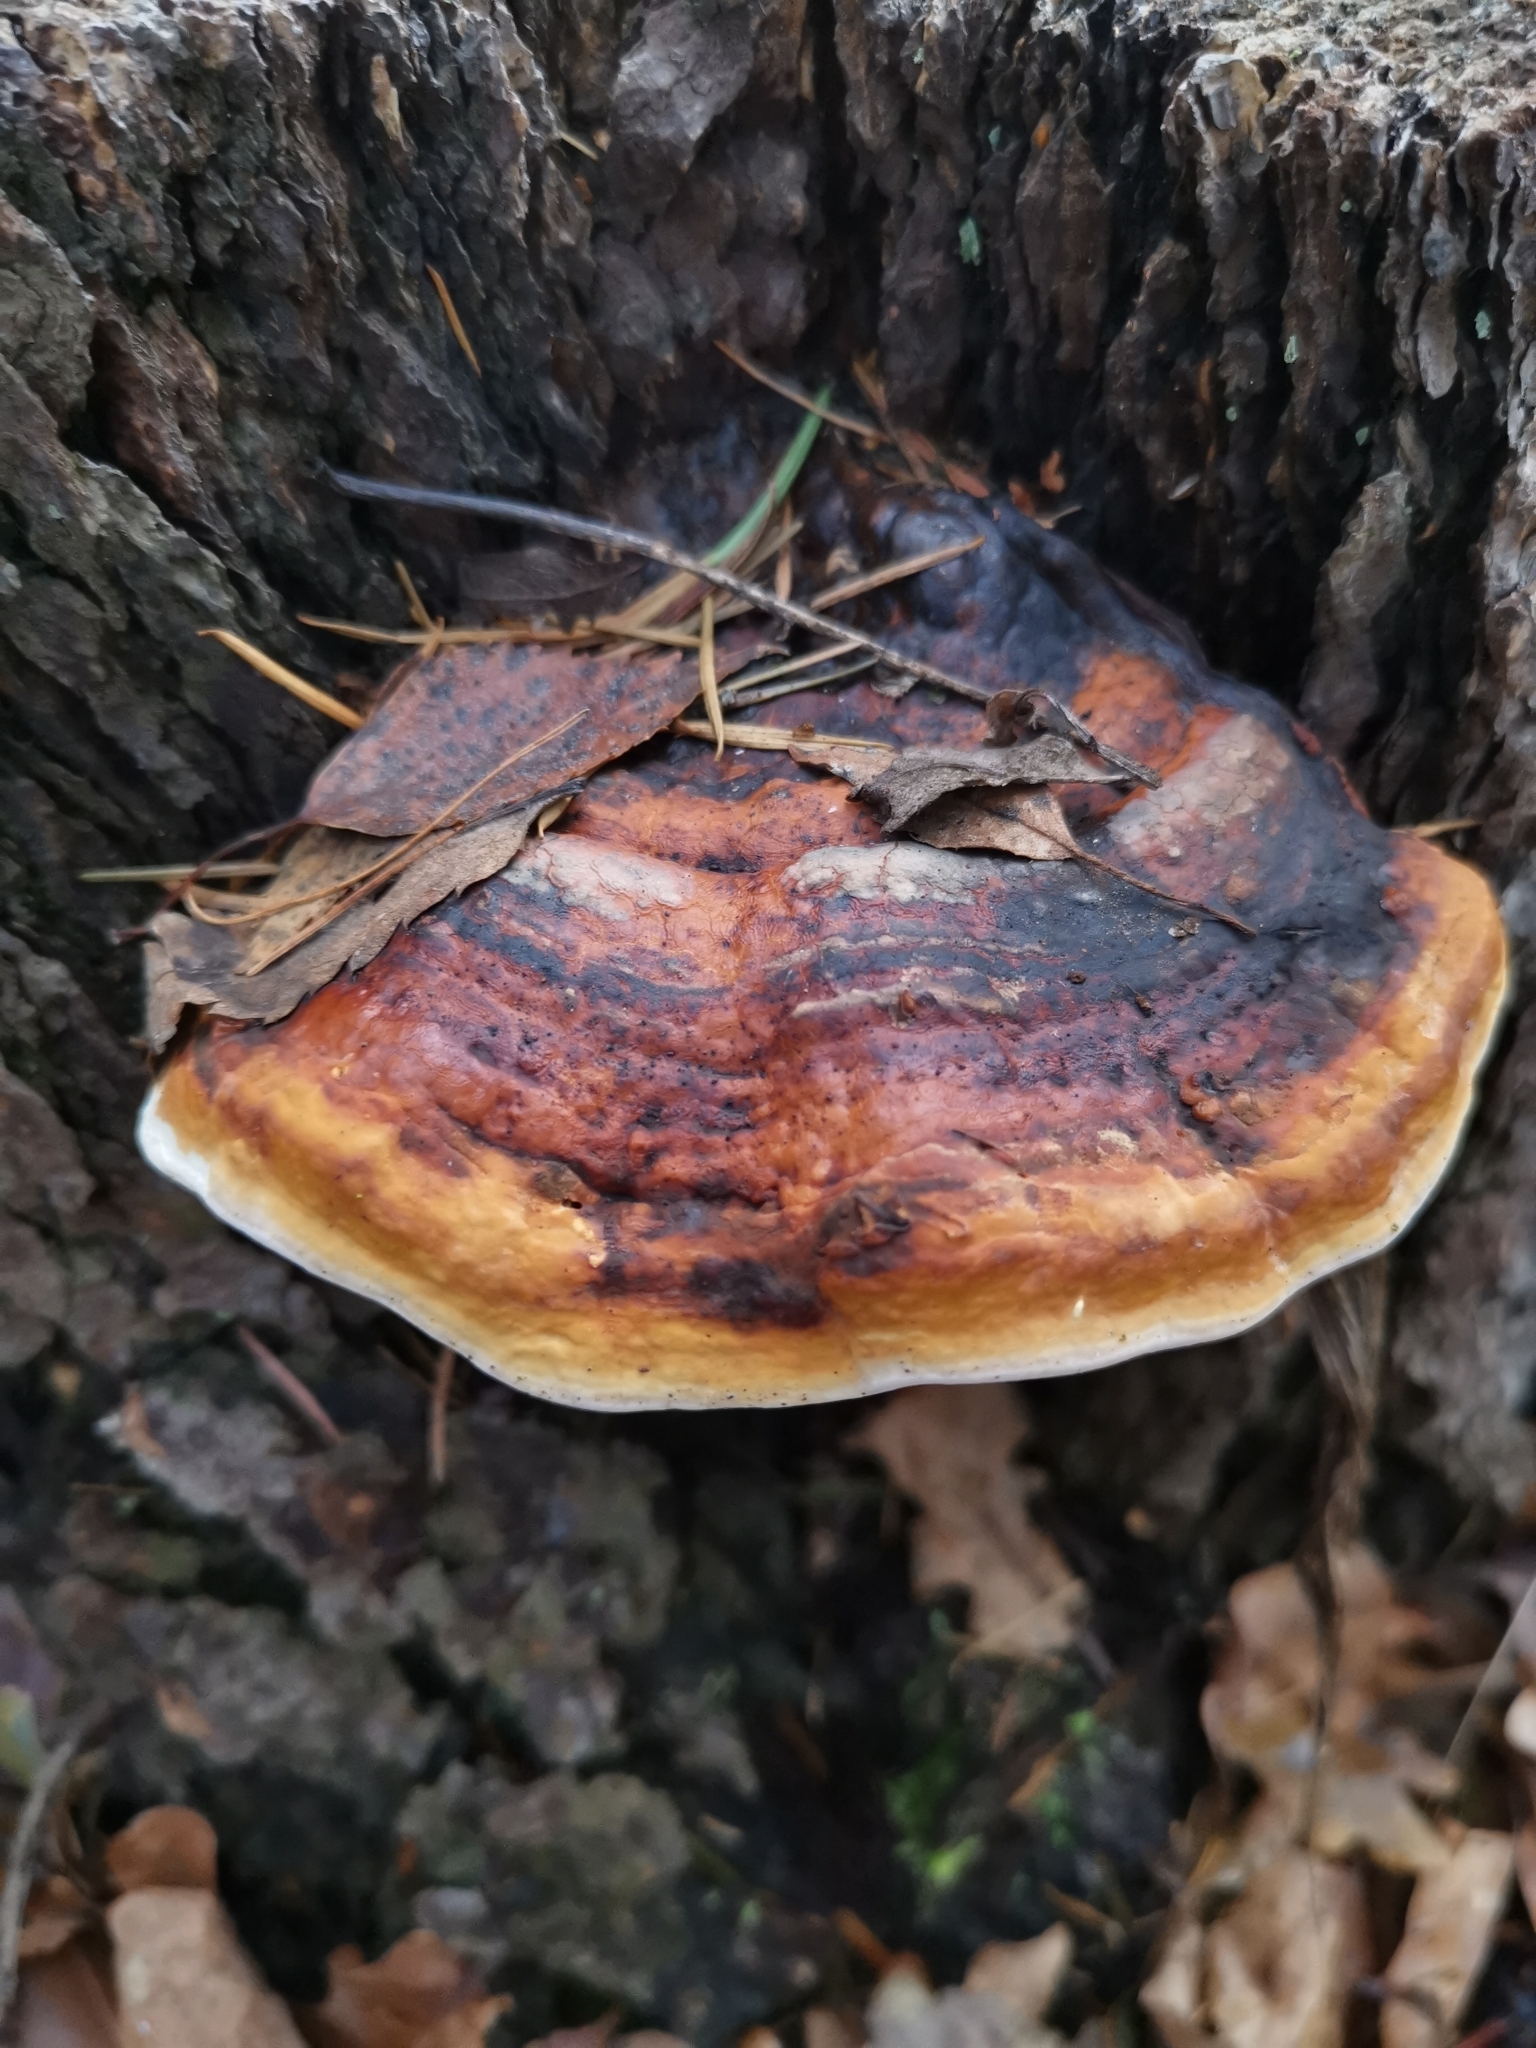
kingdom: Fungi
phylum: Basidiomycota
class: Agaricomycetes
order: Polyporales
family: Fomitopsidaceae
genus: Fomitopsis
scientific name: Fomitopsis pinicola
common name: Red-belted bracket
